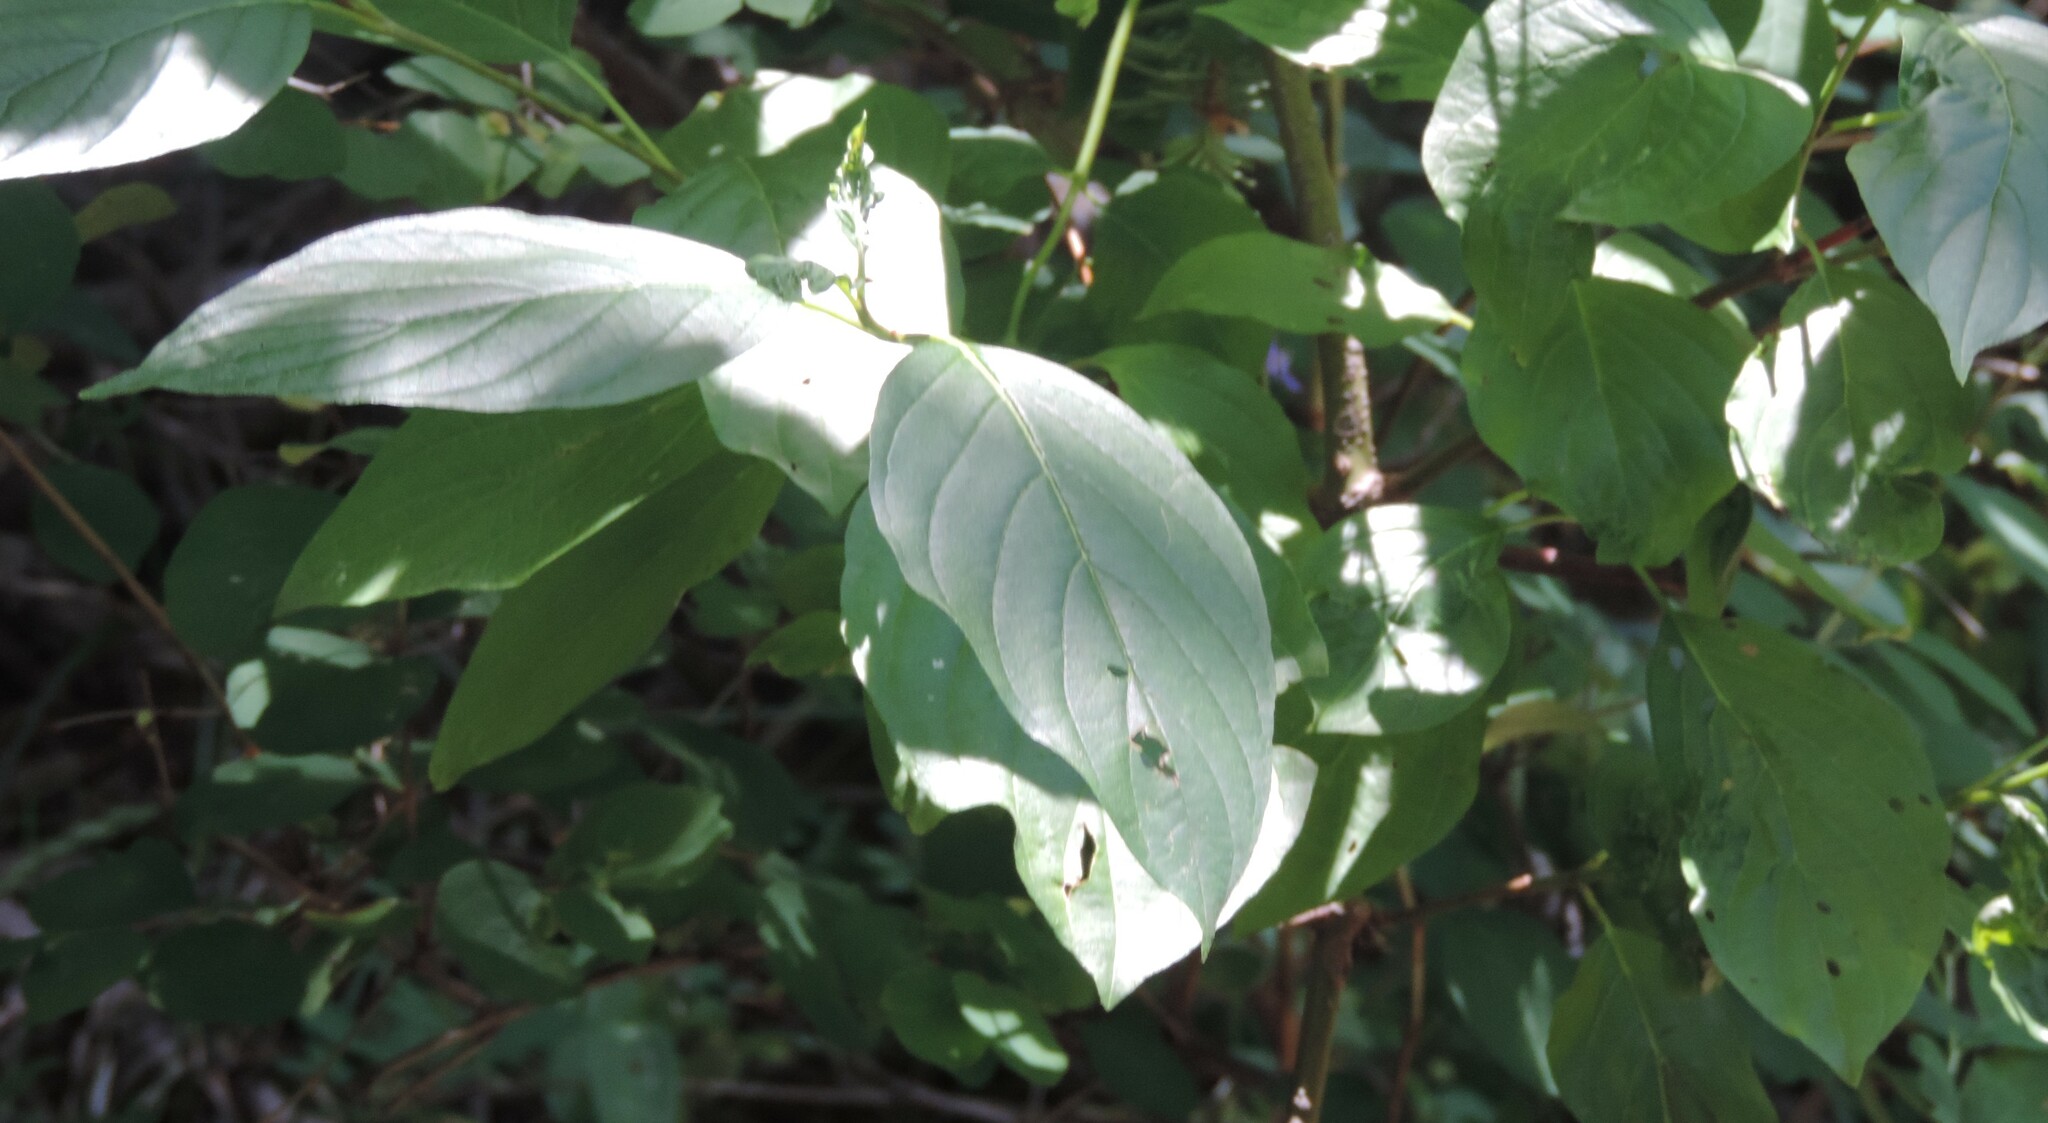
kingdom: Plantae
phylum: Tracheophyta
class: Magnoliopsida
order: Cornales
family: Cornaceae
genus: Cornus
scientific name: Cornus sericea
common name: Red-osier dogwood
